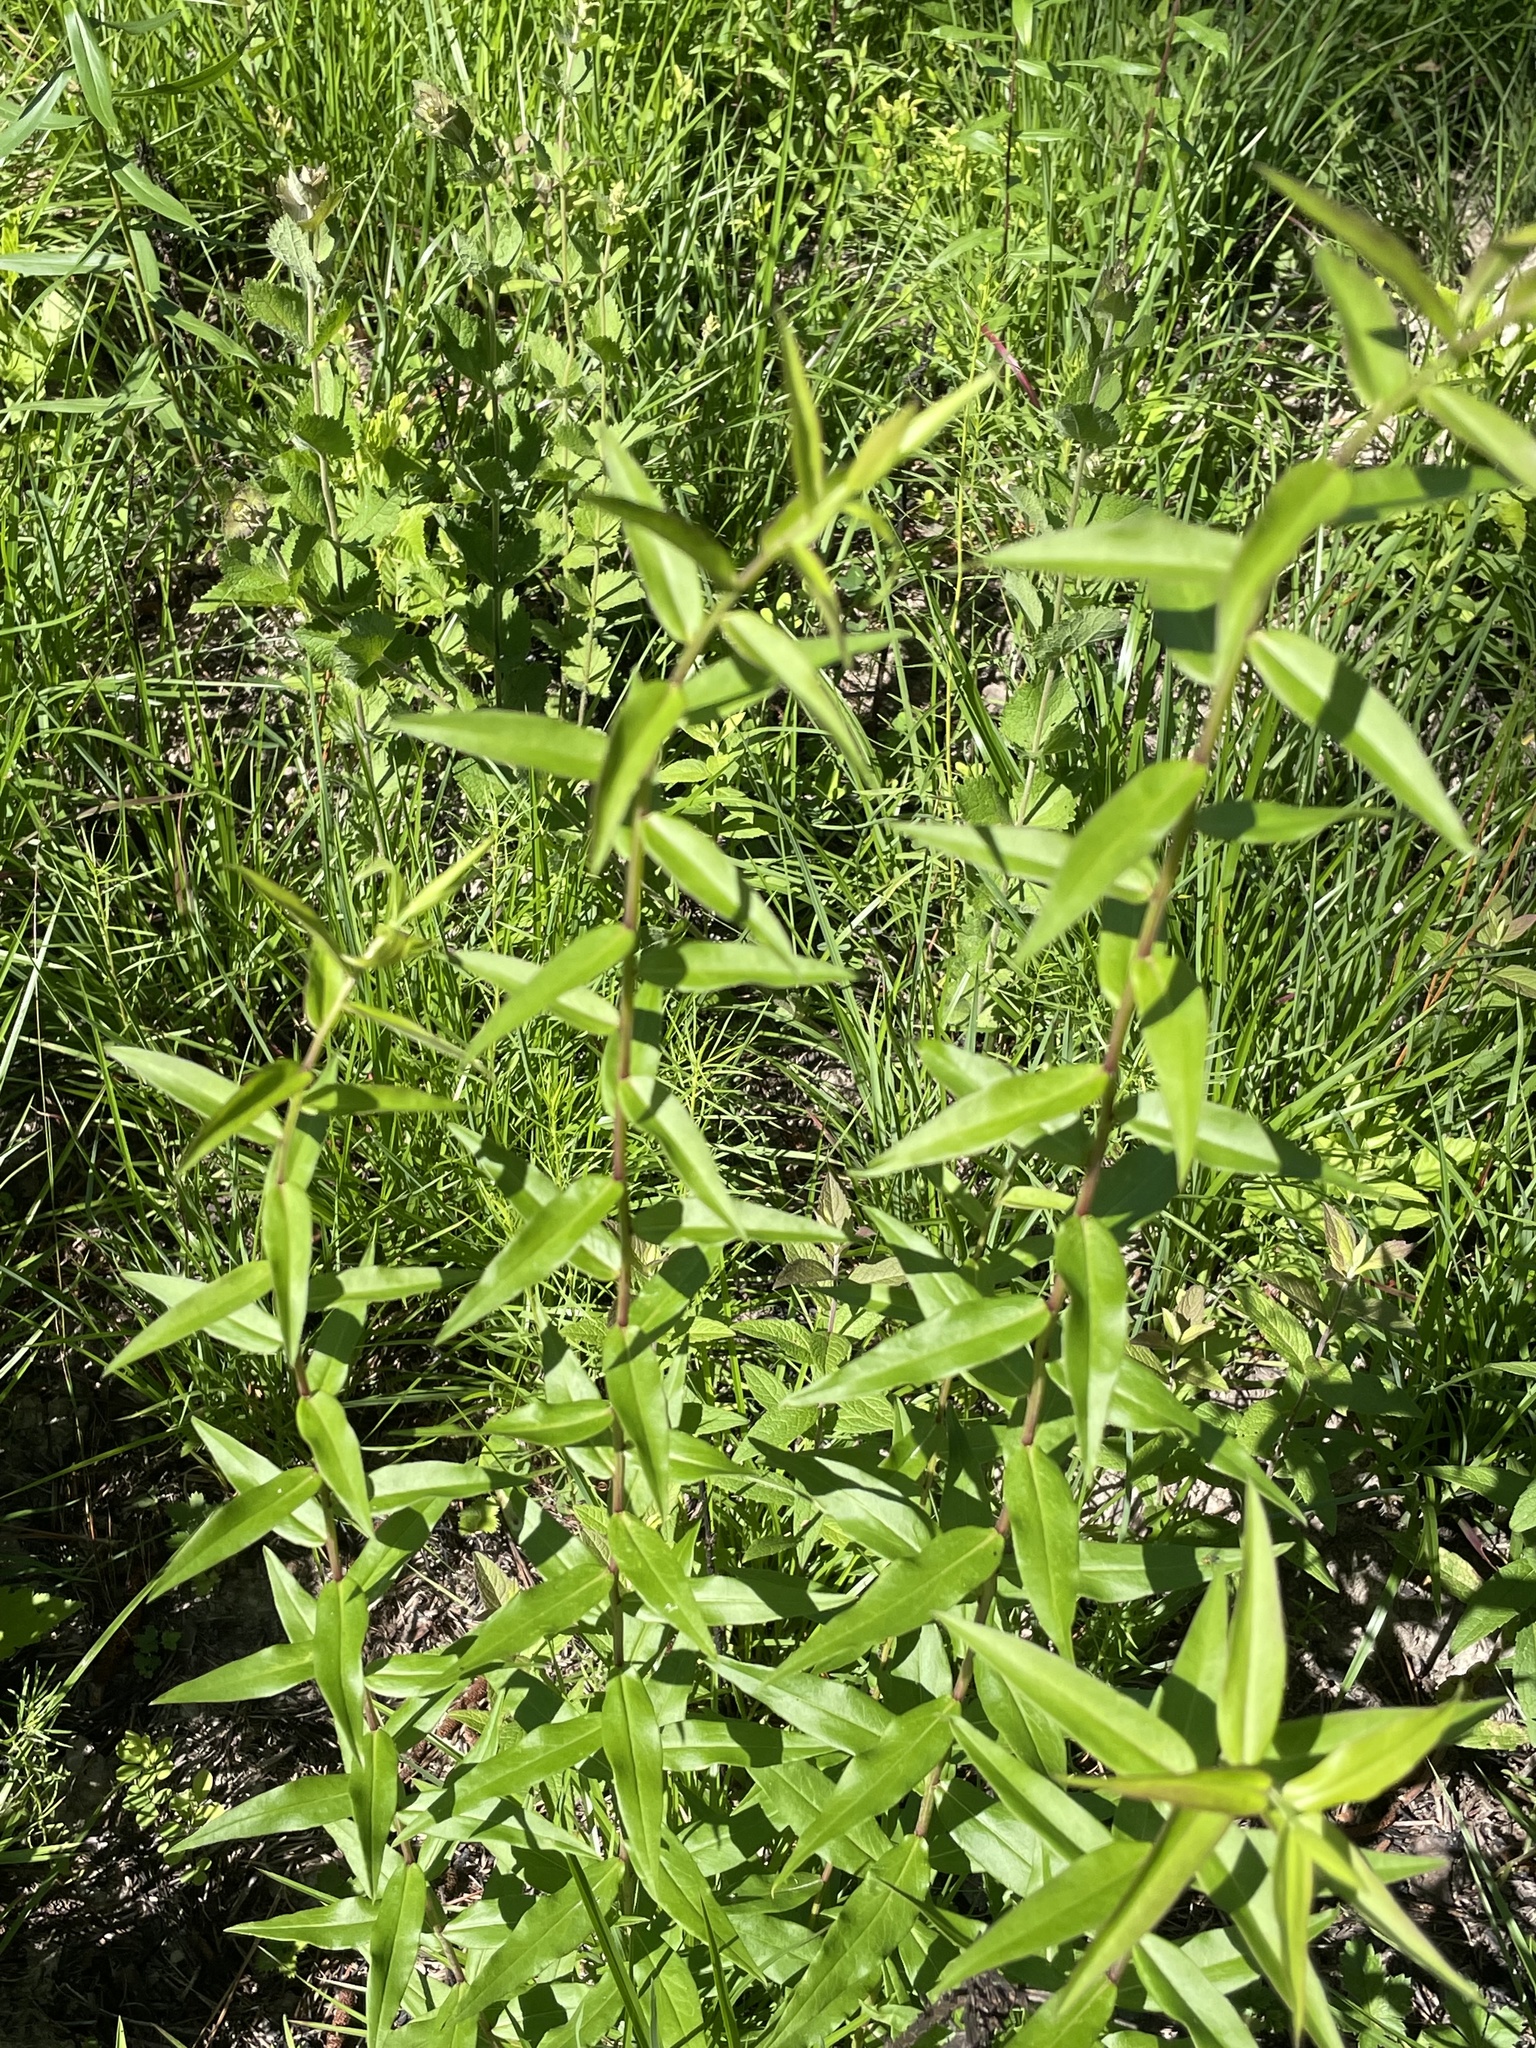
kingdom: Plantae
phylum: Tracheophyta
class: Magnoliopsida
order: Asterales
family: Asteraceae
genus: Solidago
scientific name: Solidago odora
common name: Anise-scented goldenrod
